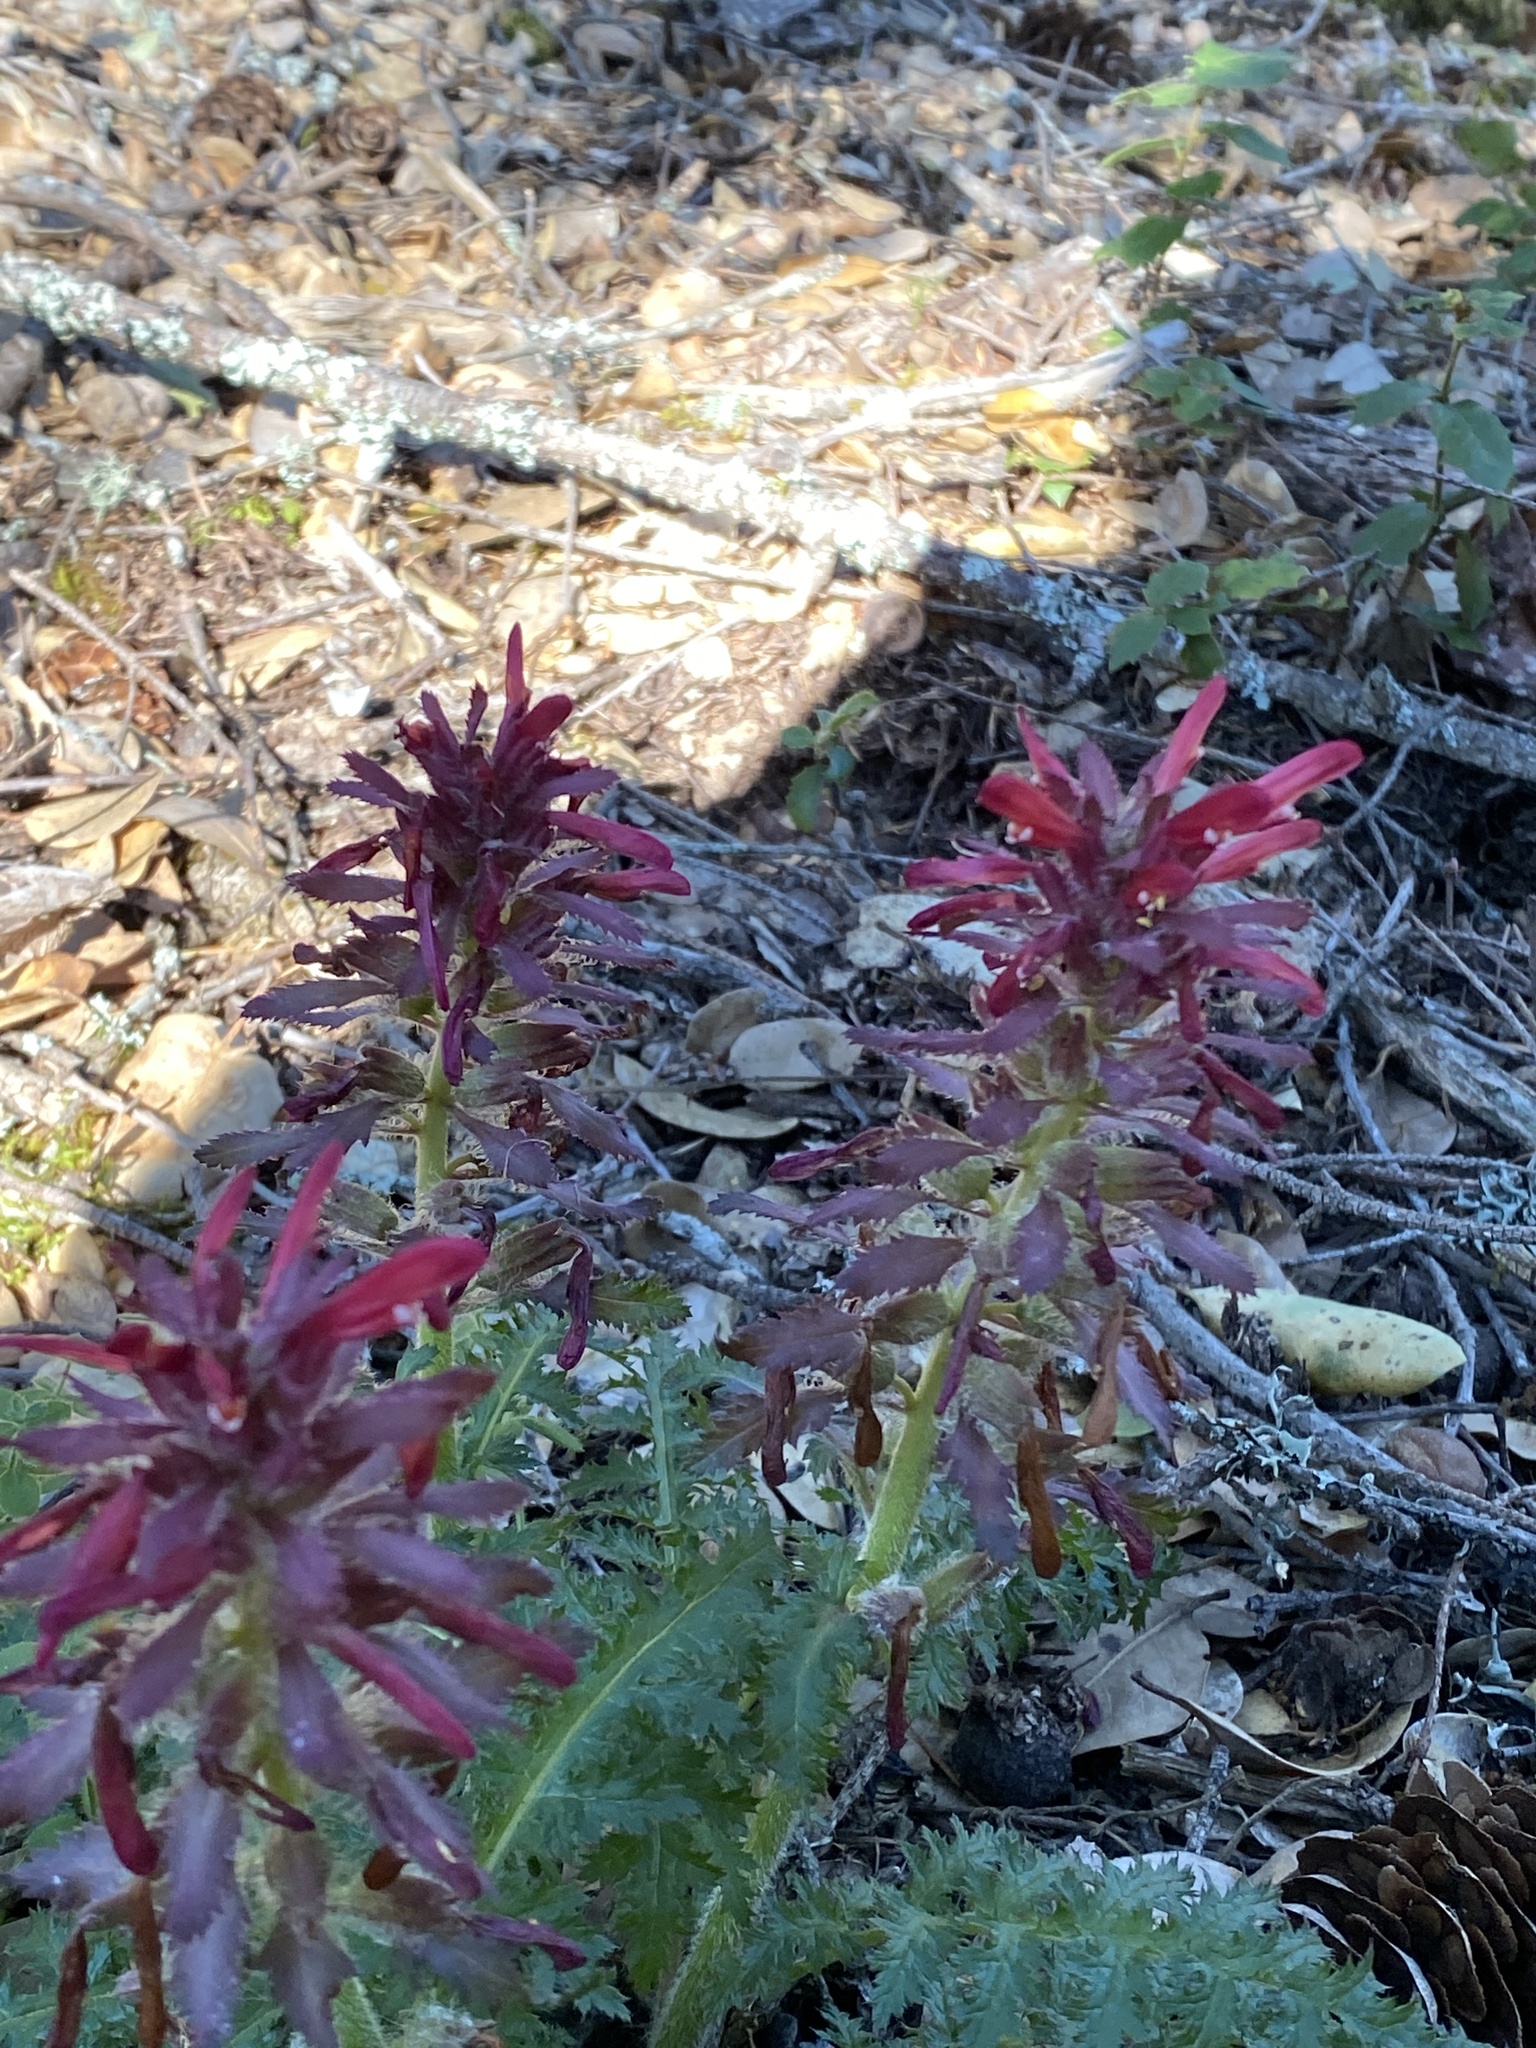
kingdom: Plantae
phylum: Tracheophyta
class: Magnoliopsida
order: Lamiales
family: Orobanchaceae
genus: Pedicularis
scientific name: Pedicularis densiflora
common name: Indian warrior
